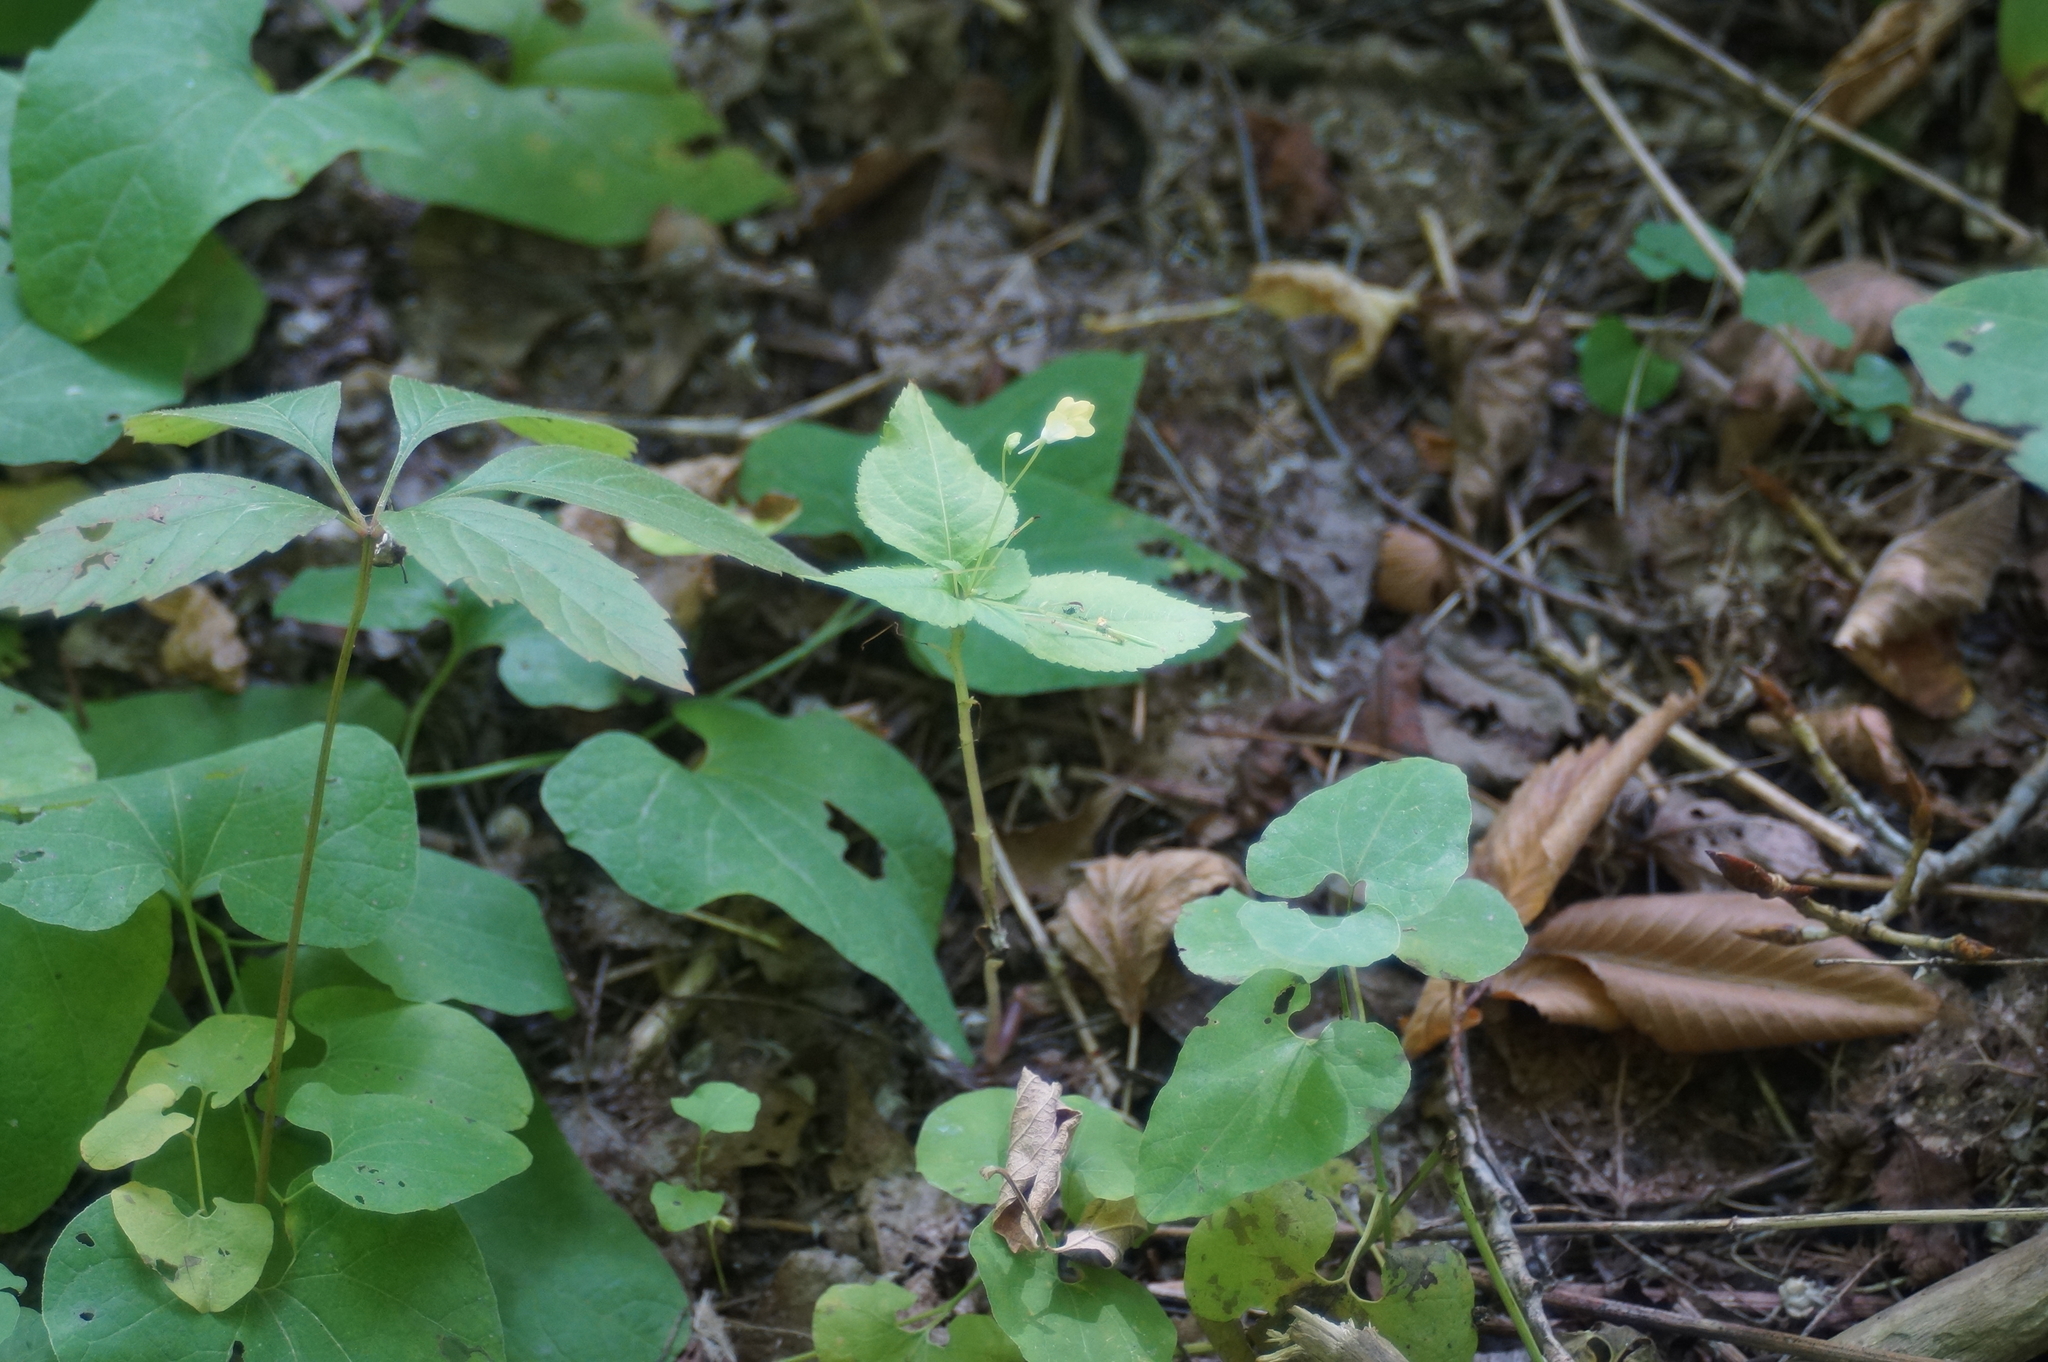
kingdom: Plantae
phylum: Tracheophyta
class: Magnoliopsida
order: Ericales
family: Balsaminaceae
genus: Impatiens
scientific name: Impatiens parviflora
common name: Small balsam
